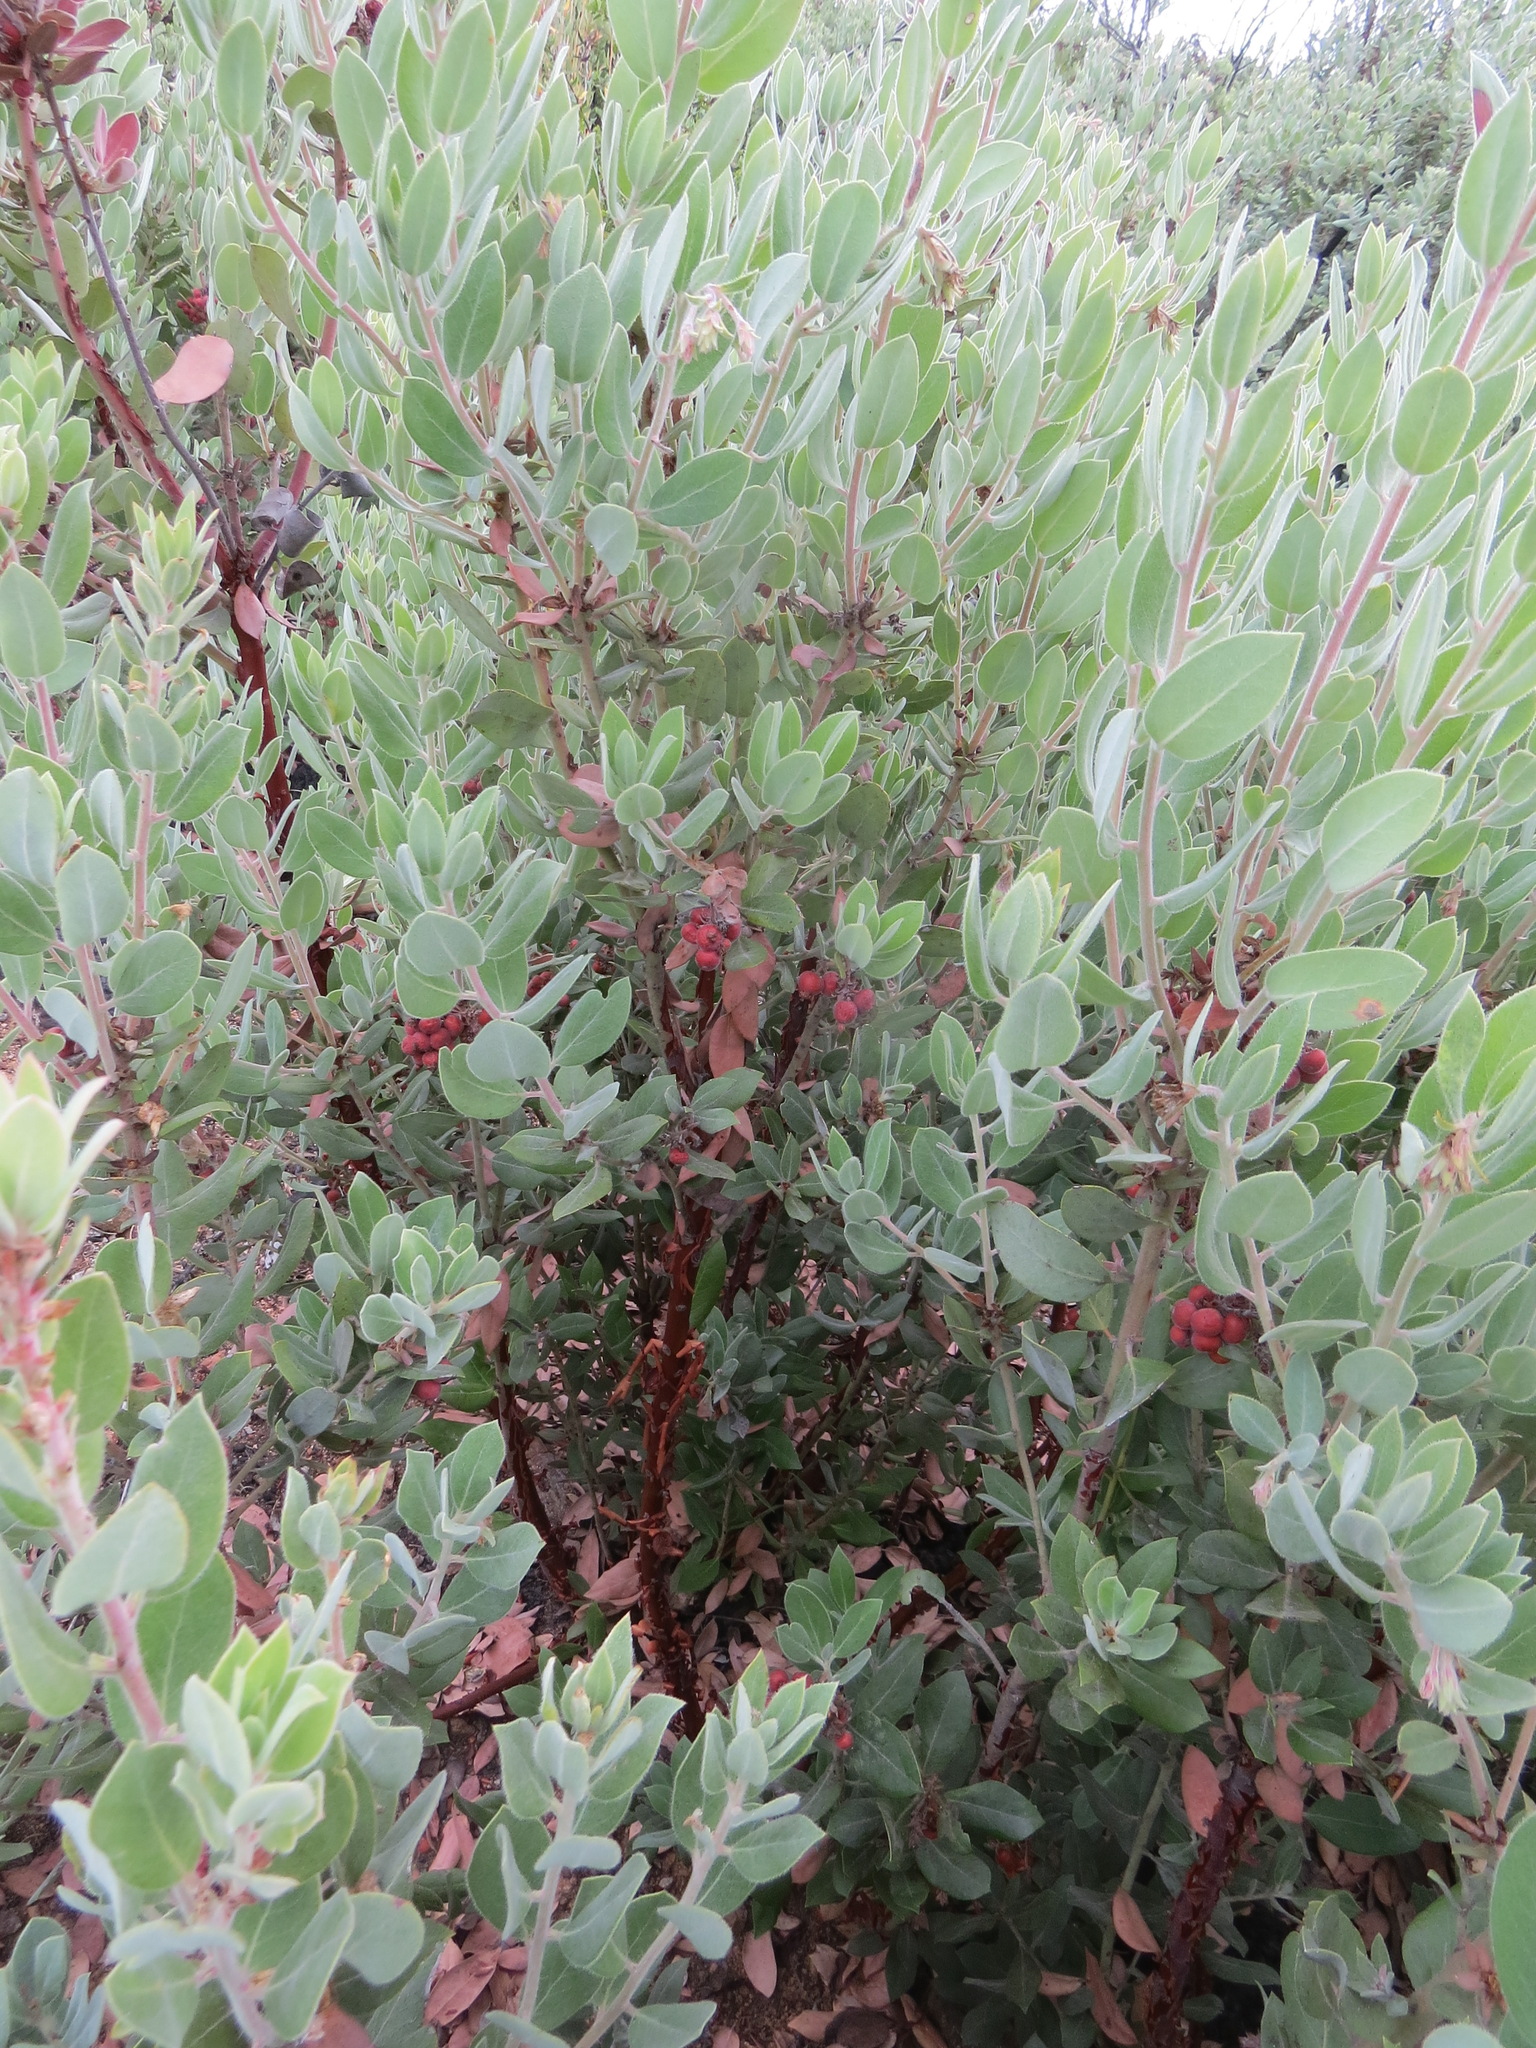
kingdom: Plantae
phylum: Tracheophyta
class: Magnoliopsida
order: Ericales
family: Ericaceae
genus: Arctostaphylos
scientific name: Arctostaphylos silvicola
